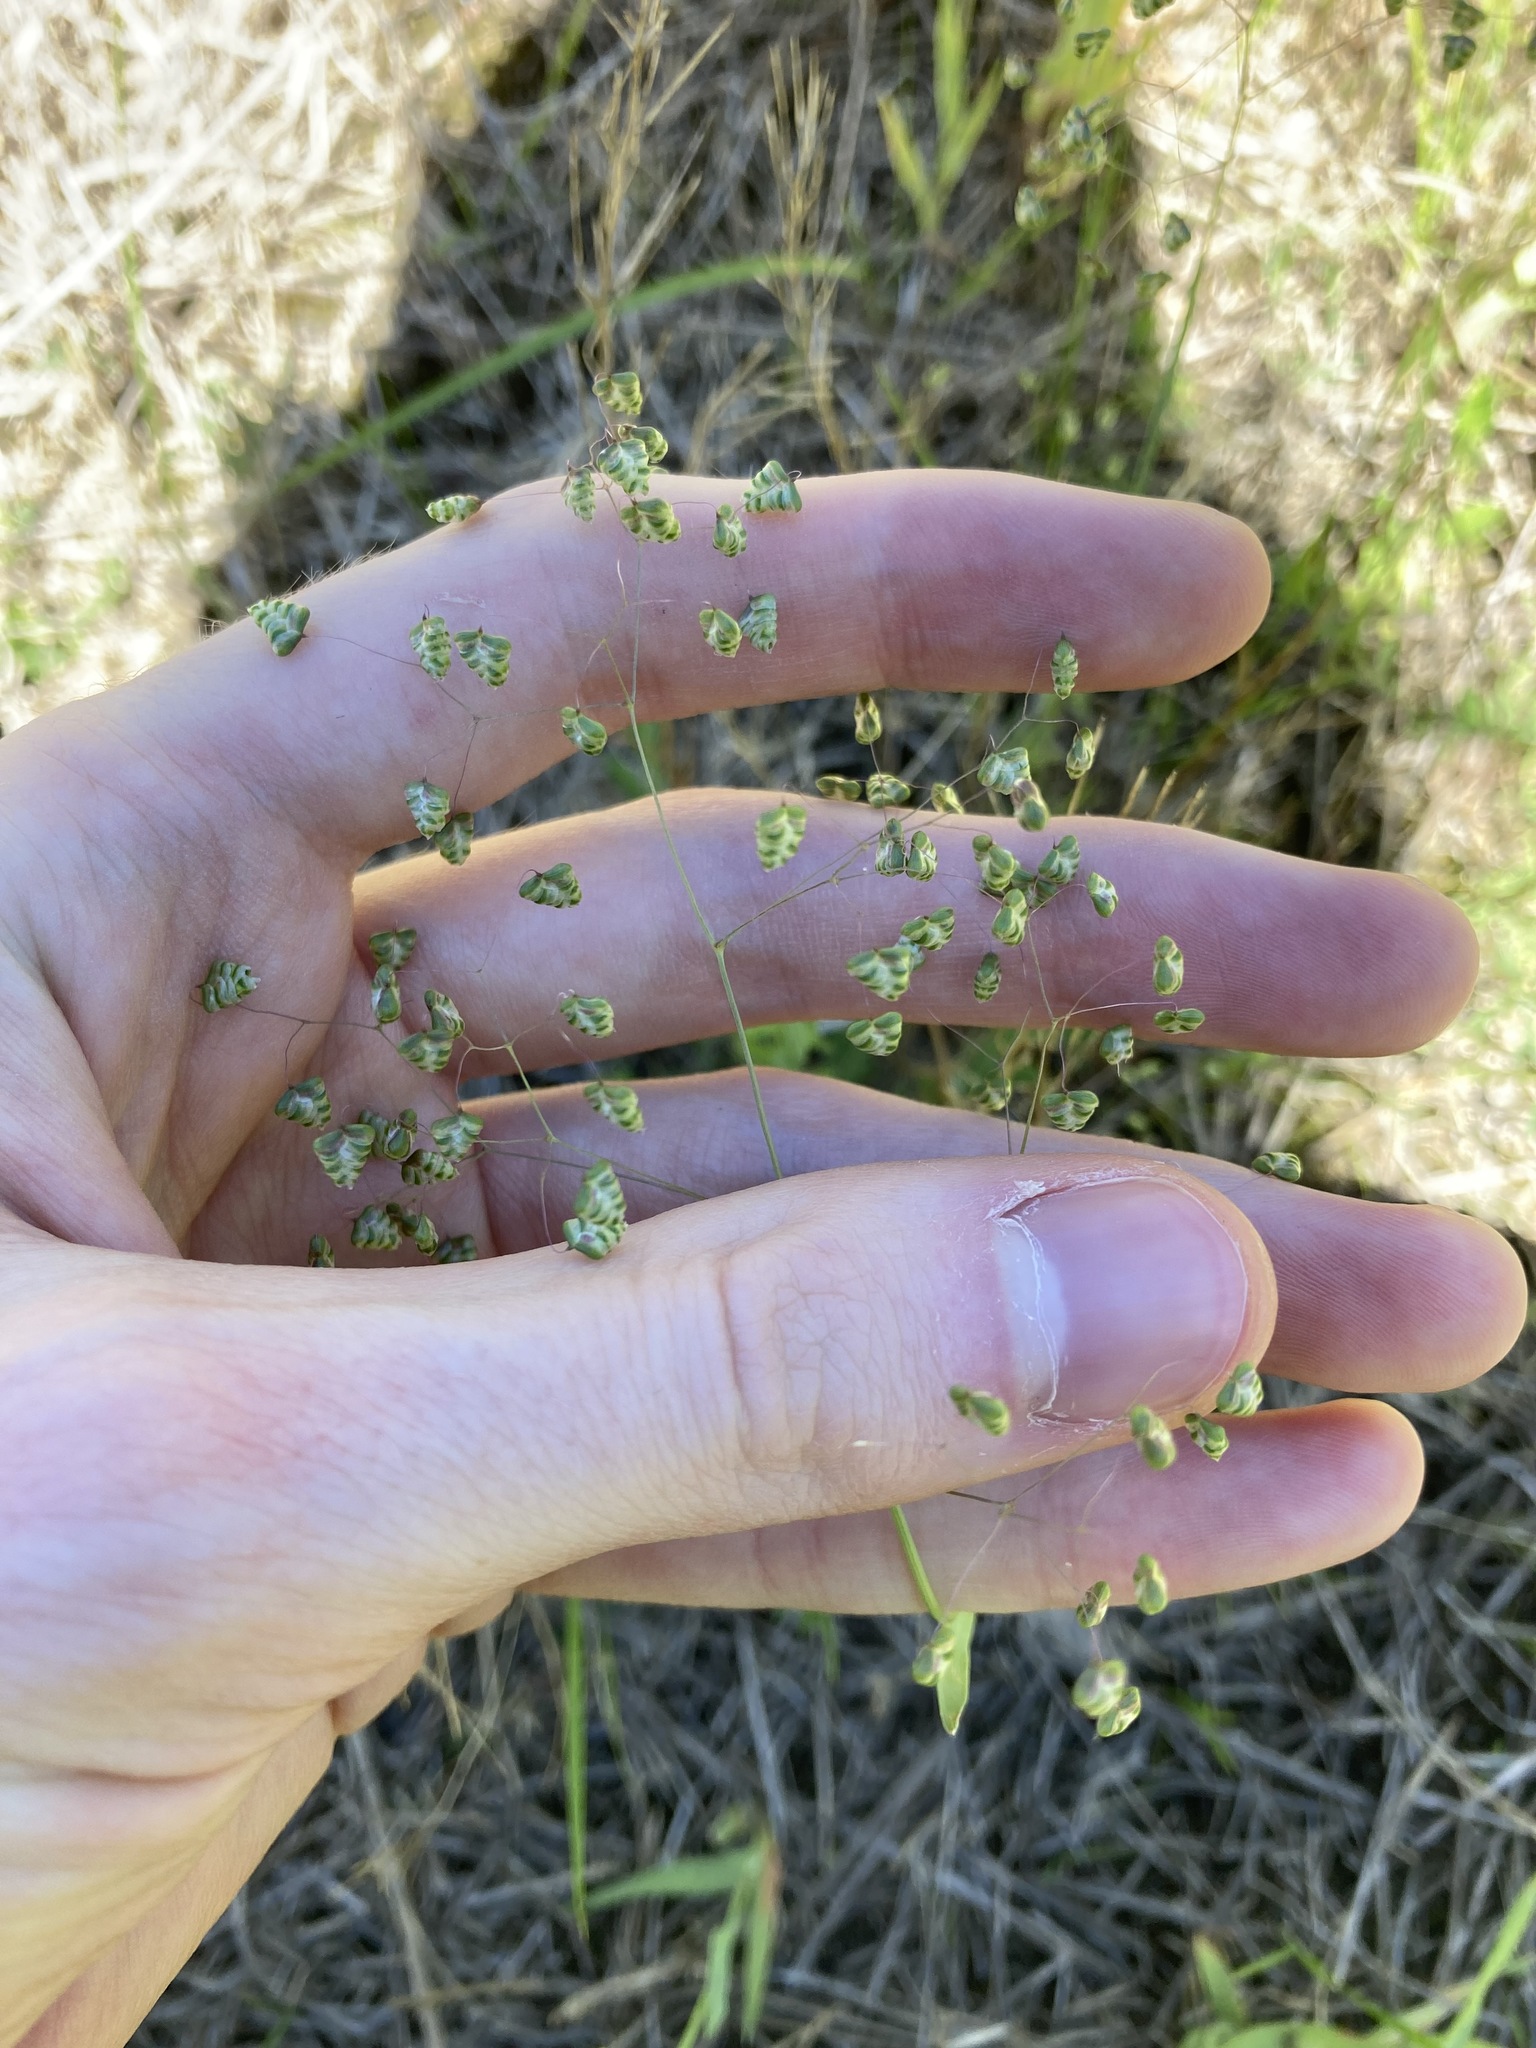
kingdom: Plantae
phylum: Tracheophyta
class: Liliopsida
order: Poales
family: Poaceae
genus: Briza
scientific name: Briza minor
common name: Lesser quaking-grass
